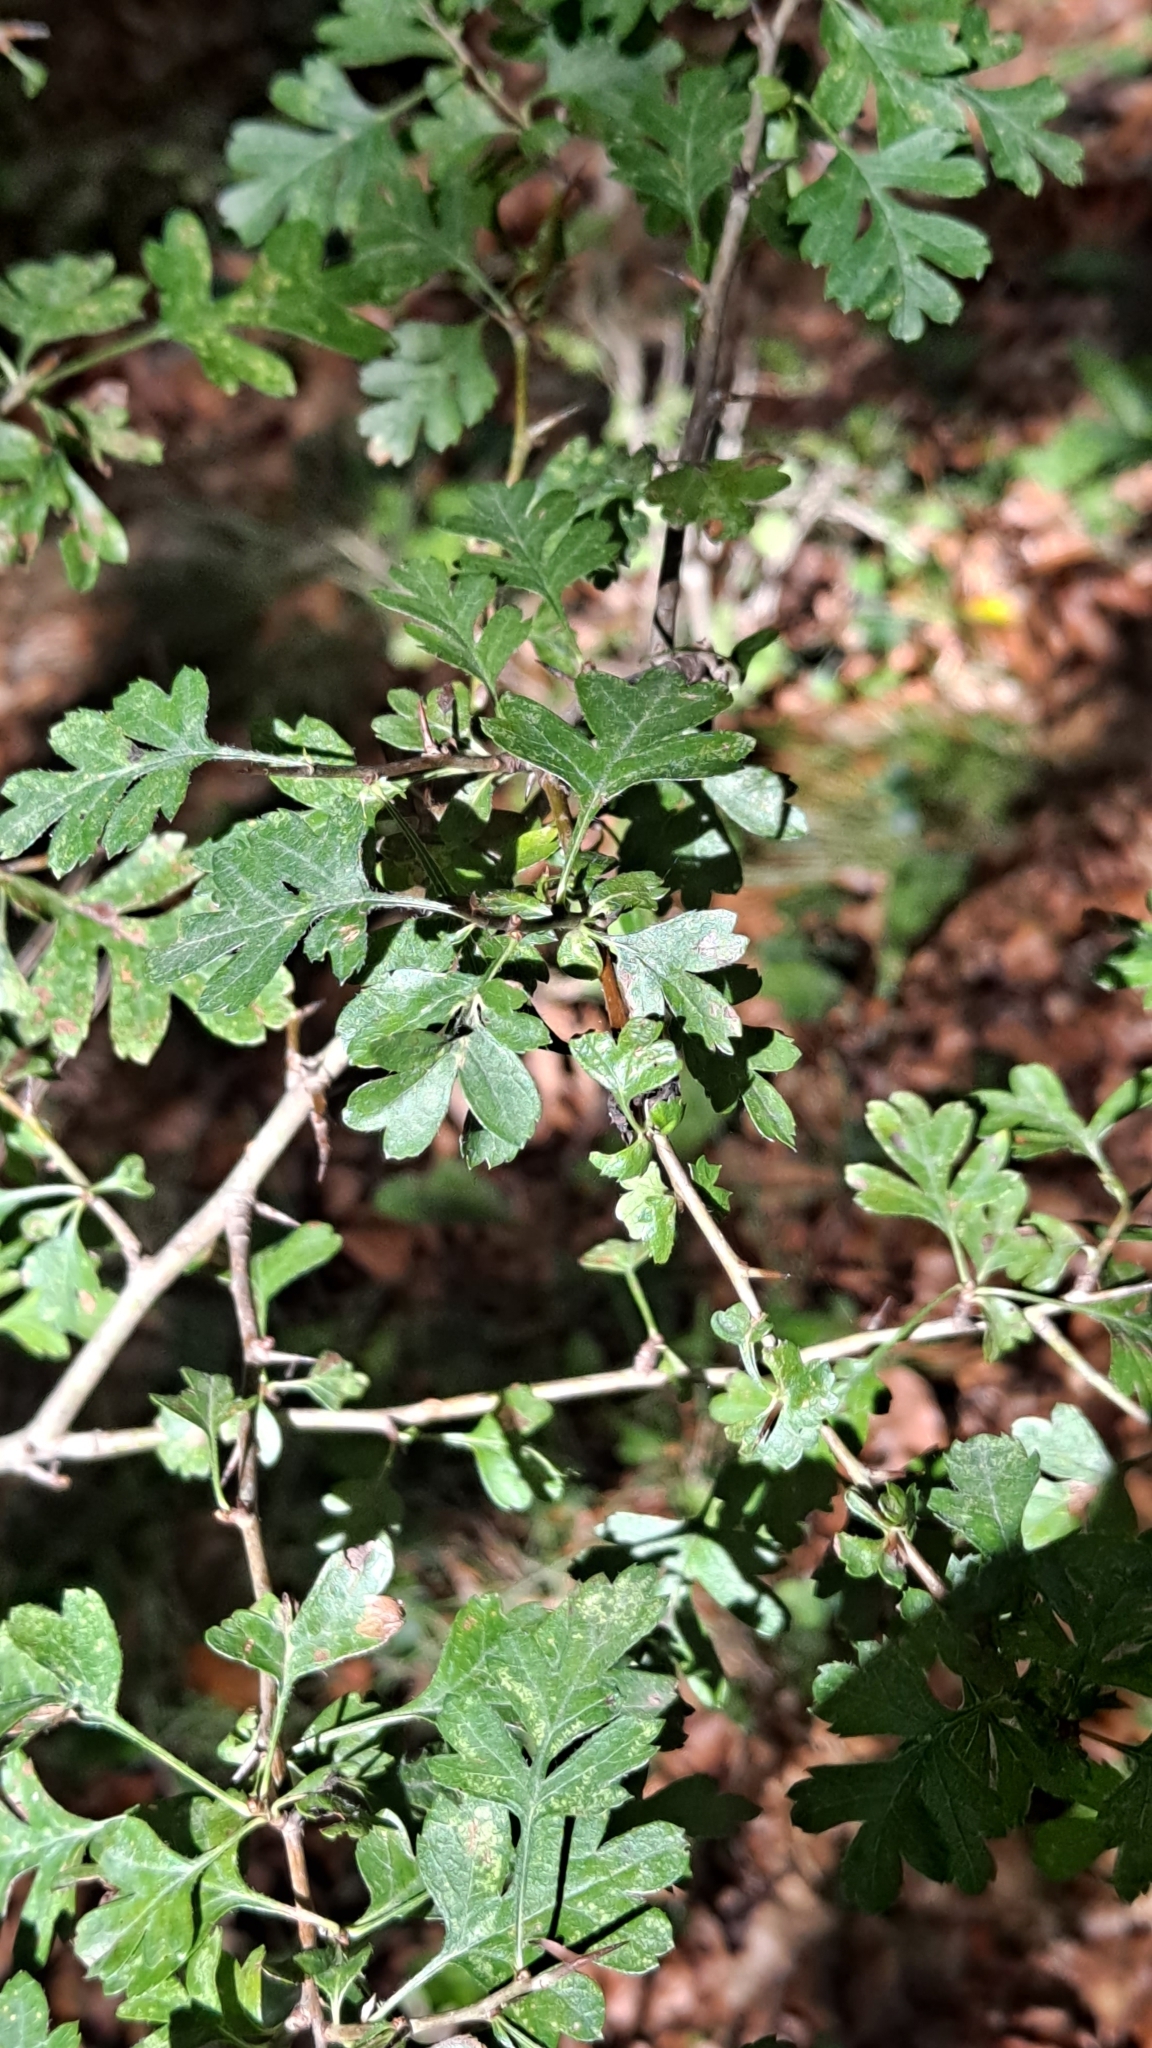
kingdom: Plantae
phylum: Tracheophyta
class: Magnoliopsida
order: Rosales
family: Rosaceae
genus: Crataegus
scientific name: Crataegus monogyna
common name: Hawthorn
